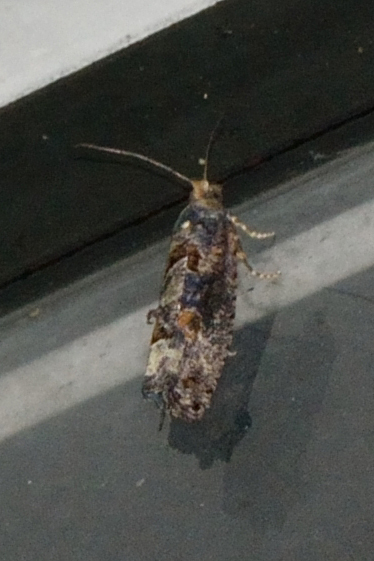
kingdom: Animalia
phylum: Arthropoda
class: Insecta
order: Lepidoptera
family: Tortricidae
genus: Epinotia
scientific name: Epinotia maculana
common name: Dark aspen bell
